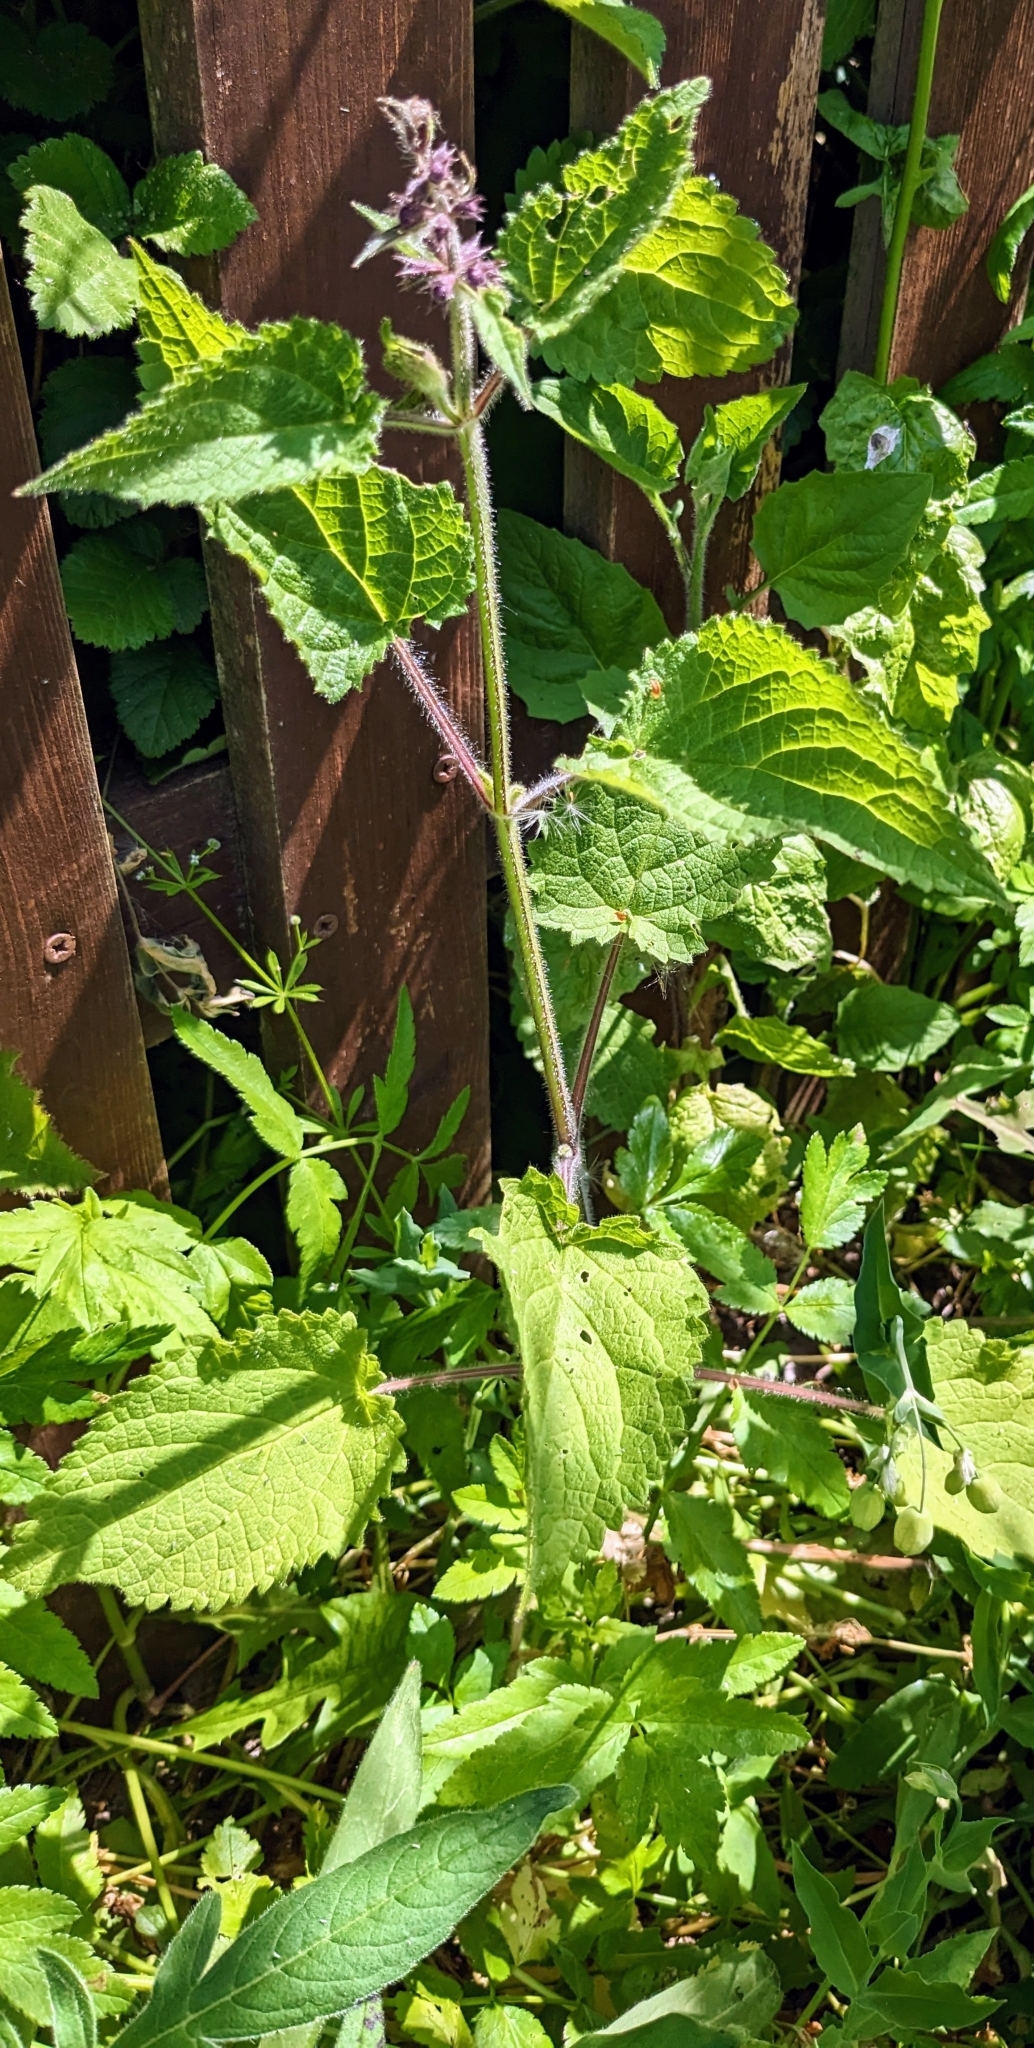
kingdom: Plantae
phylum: Tracheophyta
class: Magnoliopsida
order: Lamiales
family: Lamiaceae
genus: Stachys
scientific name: Stachys sylvatica
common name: Hedge woundwort
